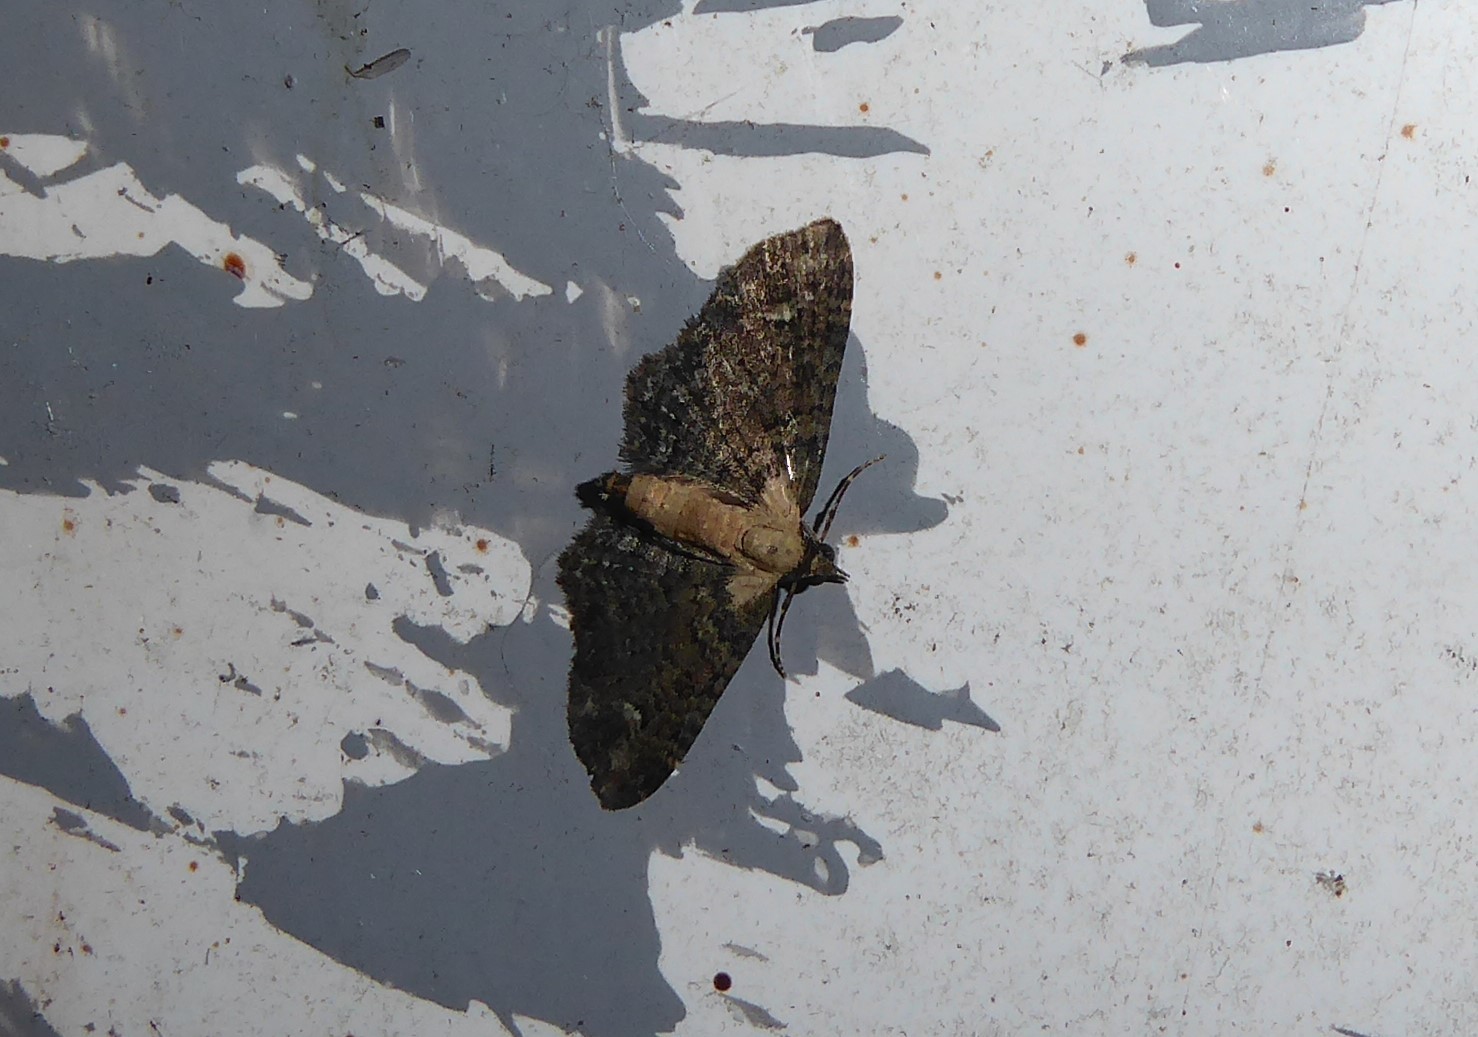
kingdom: Animalia
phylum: Arthropoda
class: Insecta
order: Lepidoptera
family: Geometridae
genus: Pasiphilodes
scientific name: Pasiphilodes testulata
